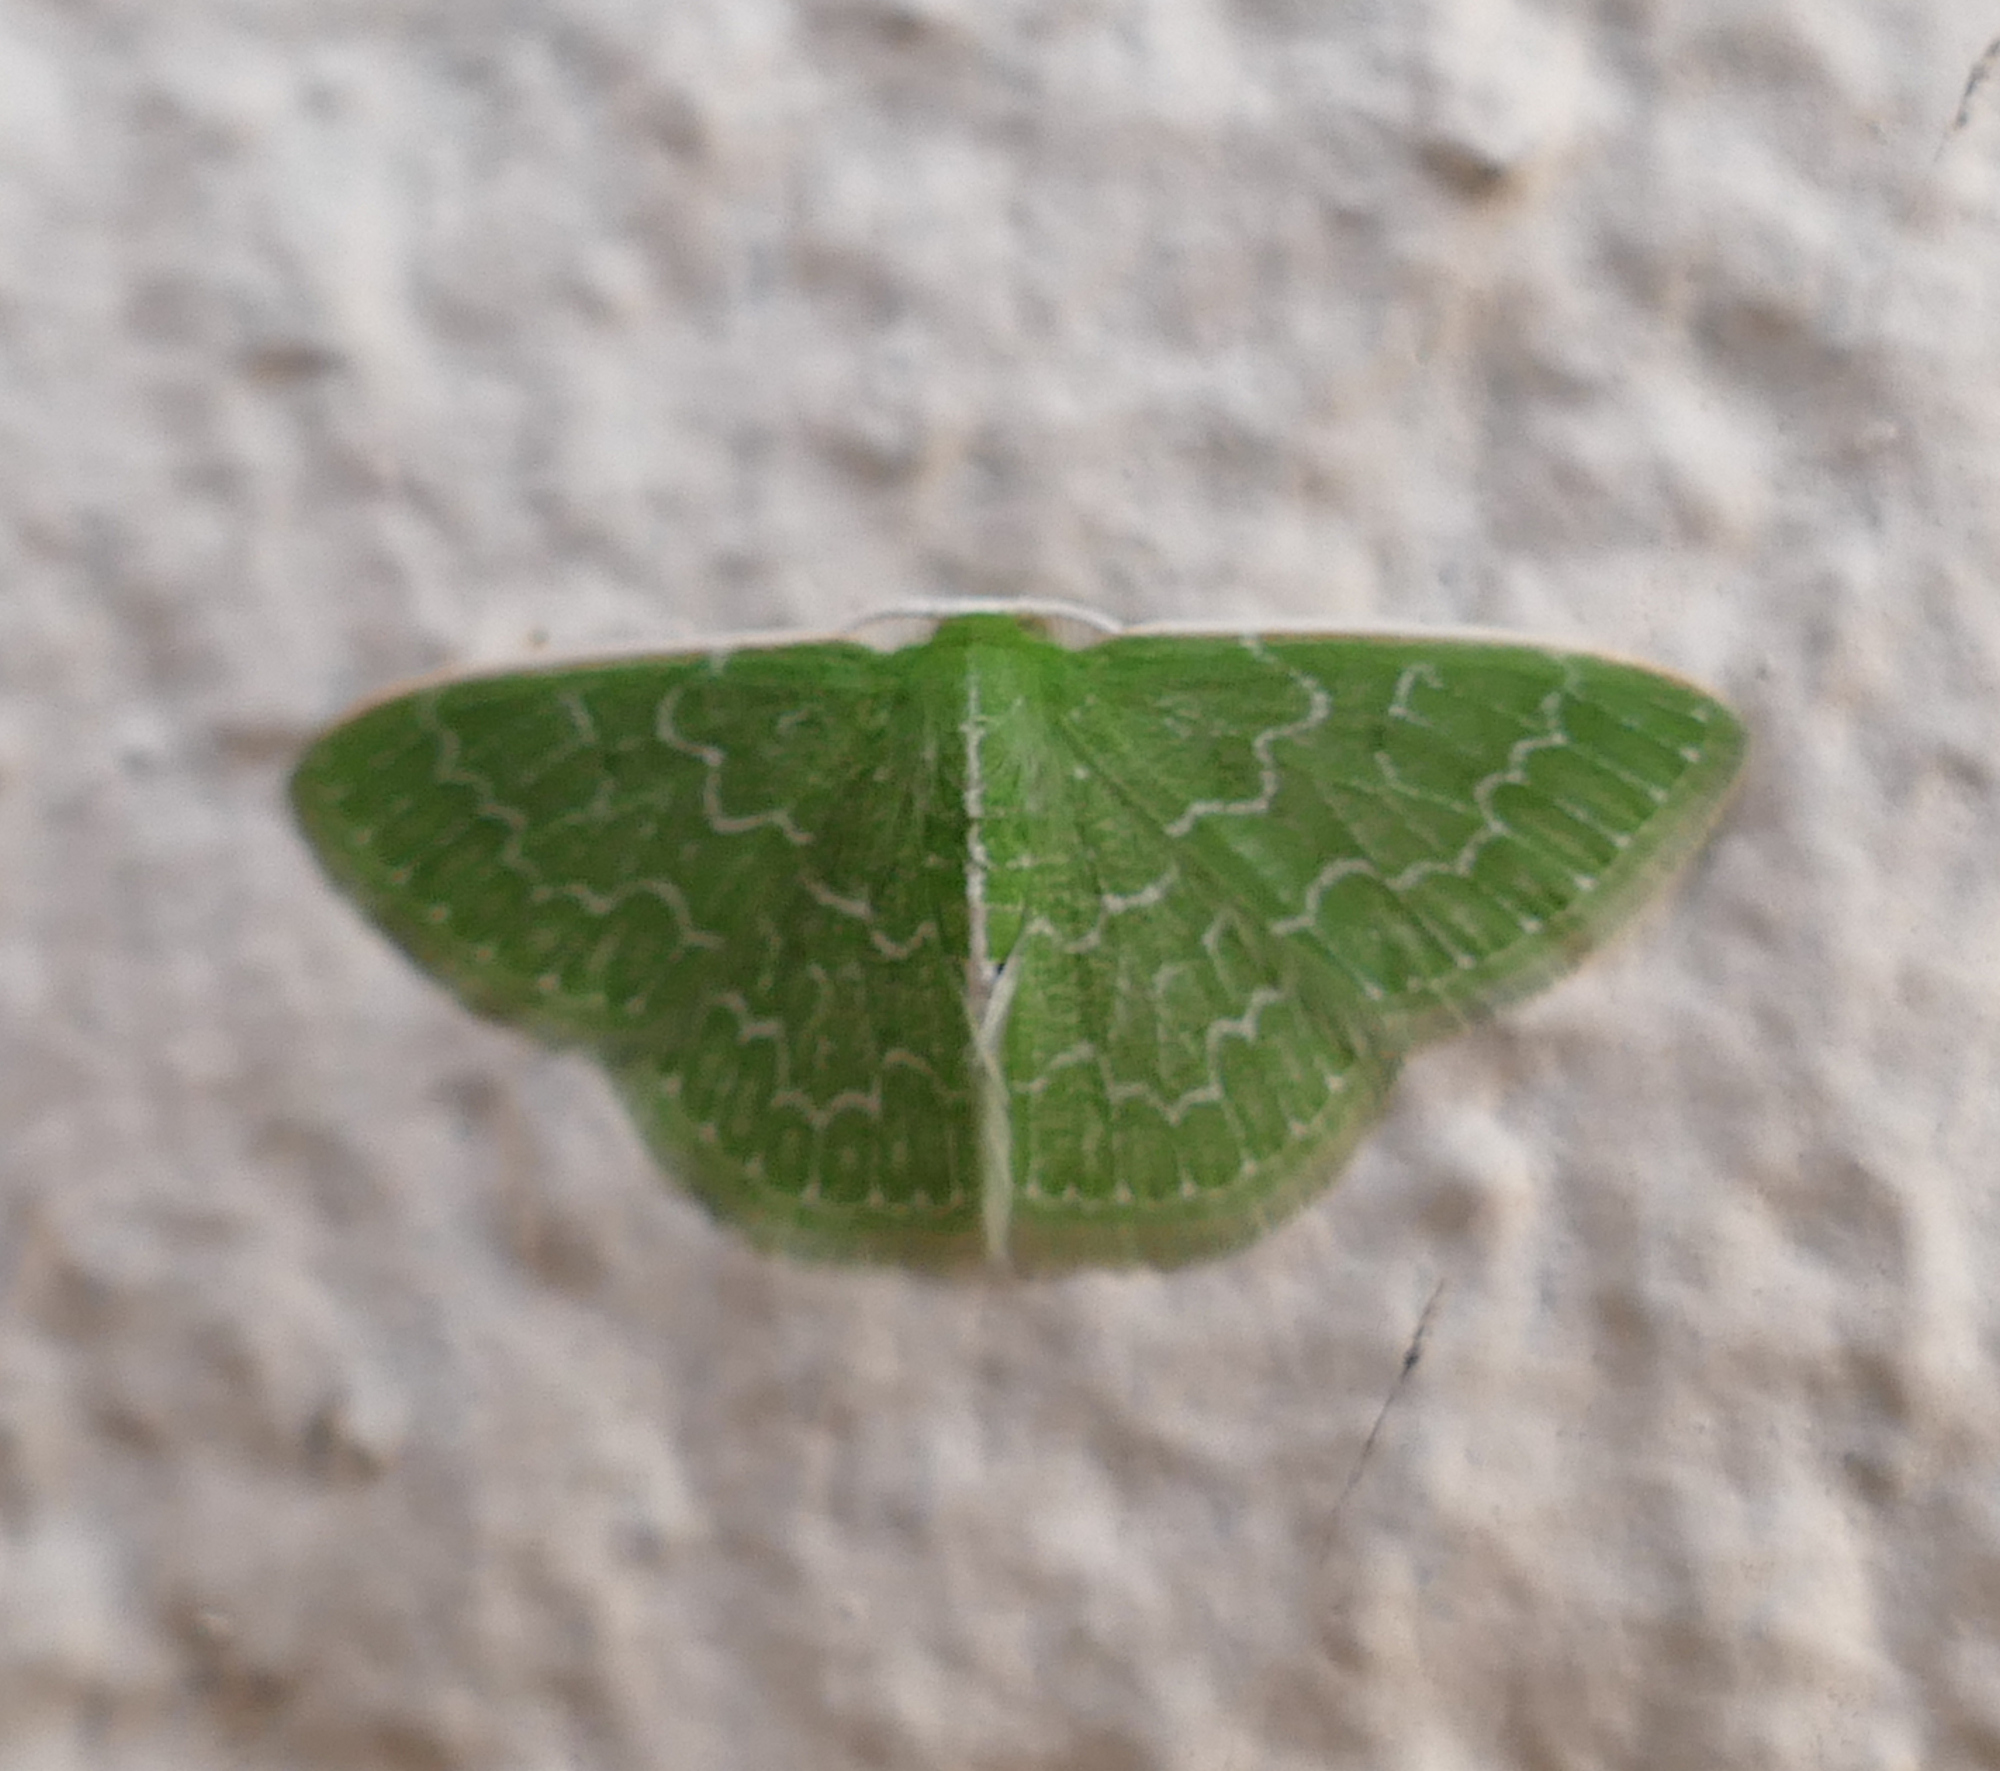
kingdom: Animalia
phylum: Arthropoda
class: Insecta
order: Lepidoptera
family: Geometridae
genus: Synchlora
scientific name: Synchlora frondaria
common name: Southern emerald
